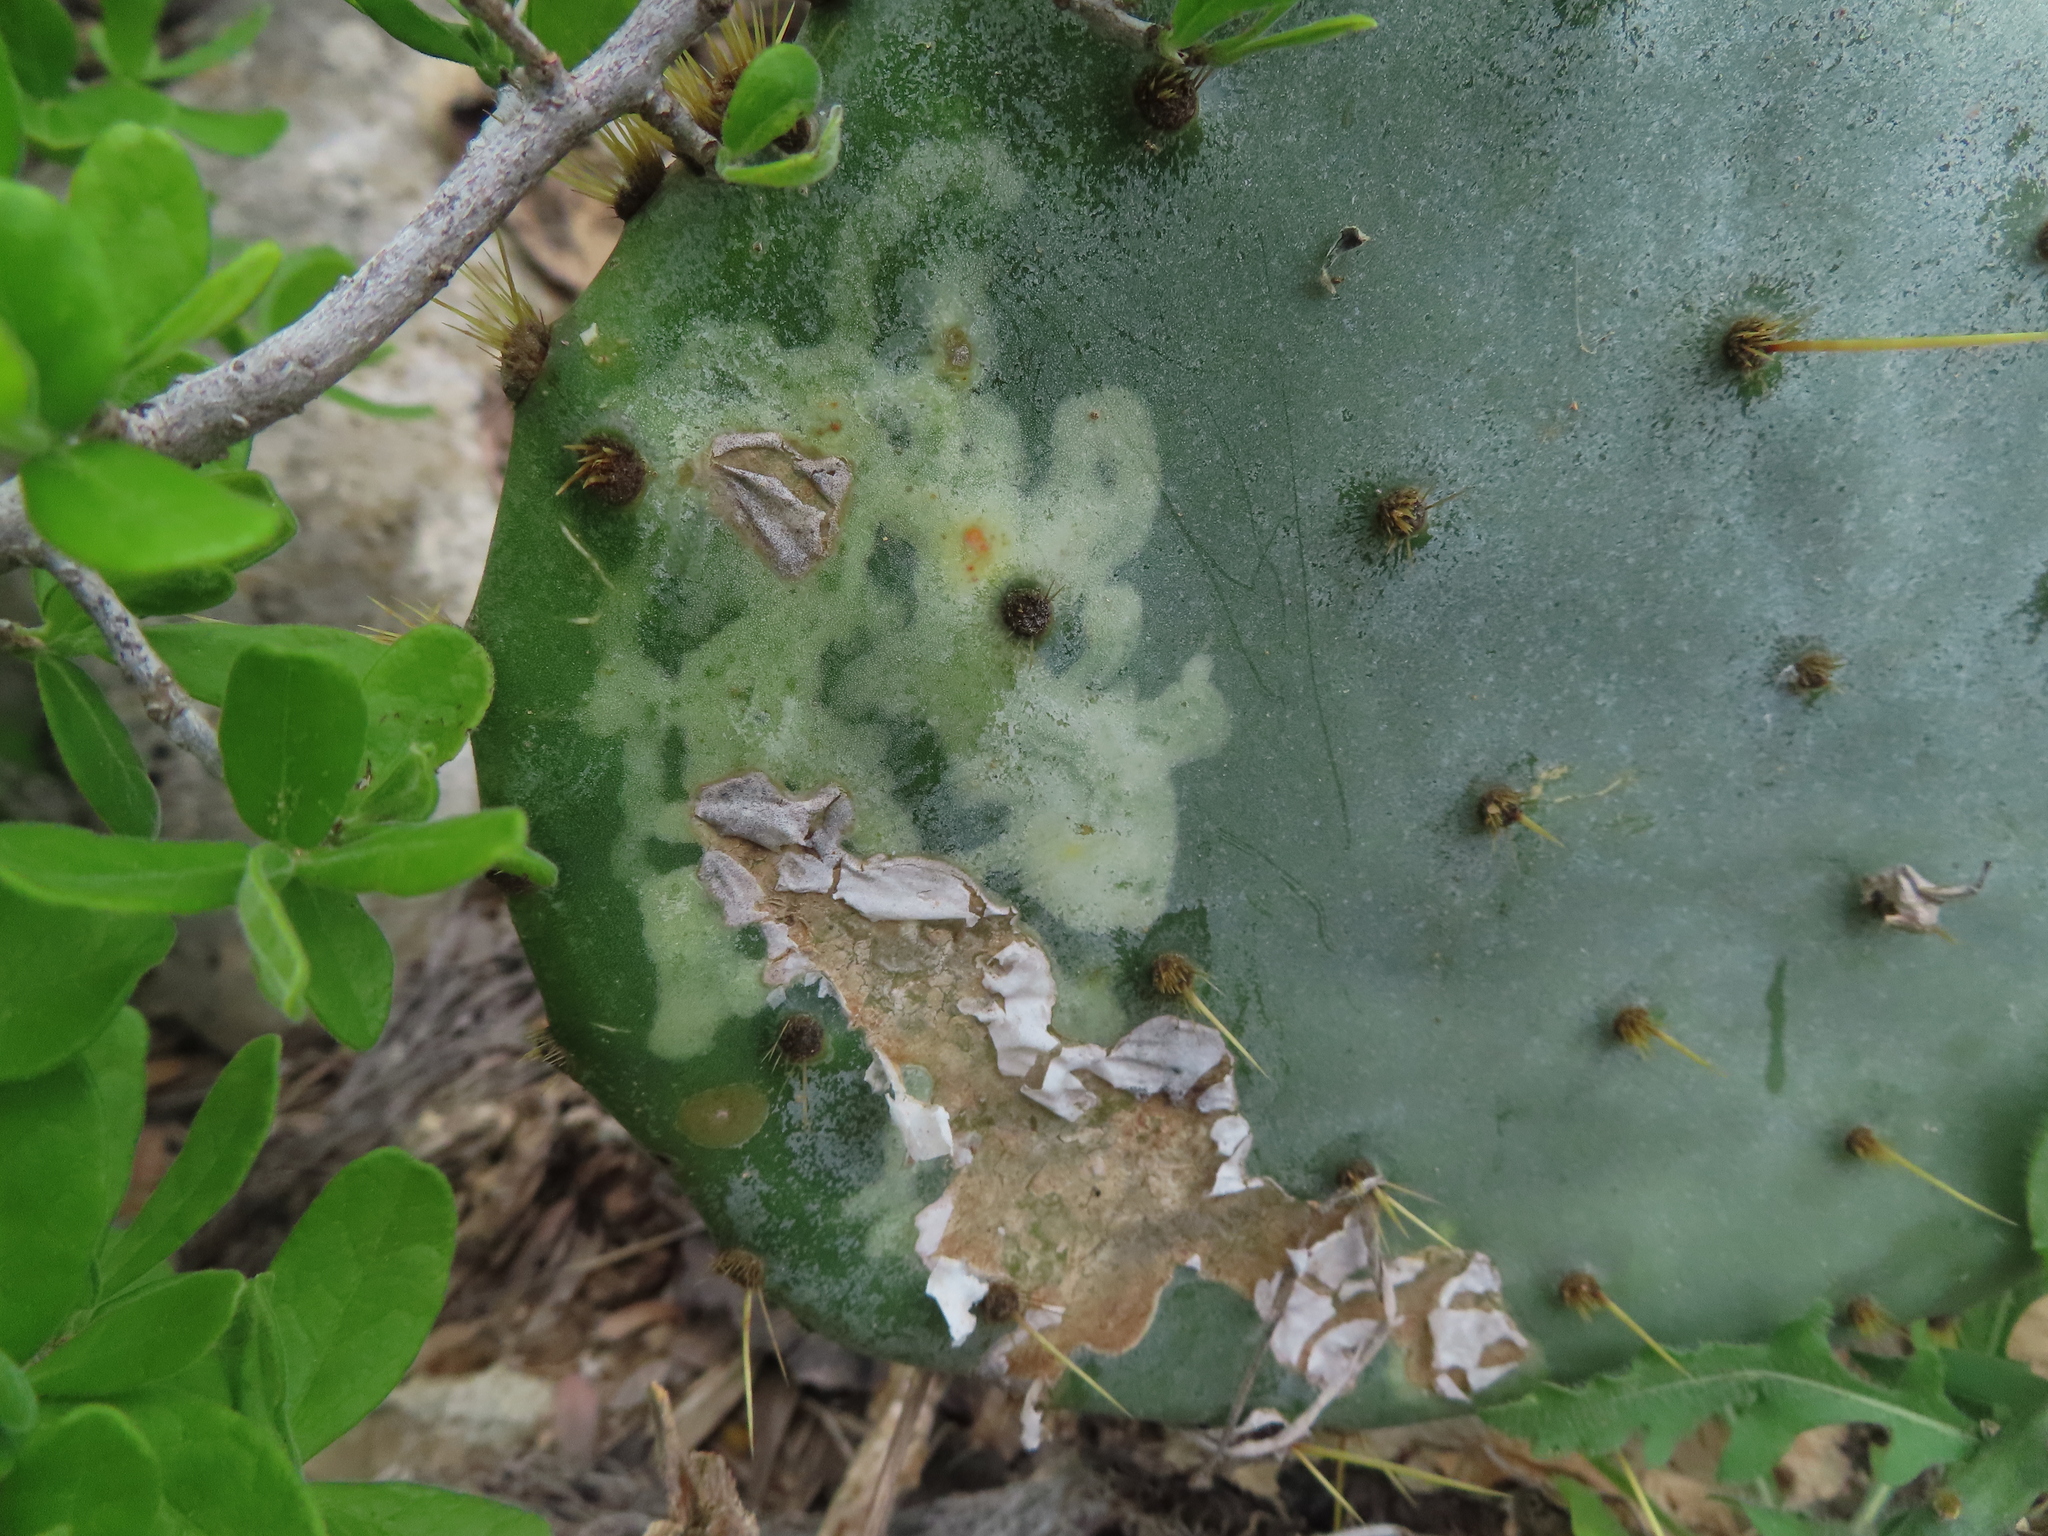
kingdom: Animalia
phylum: Arthropoda
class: Insecta
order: Lepidoptera
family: Gracillariidae
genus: Marmara
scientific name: Marmara opuntiella
